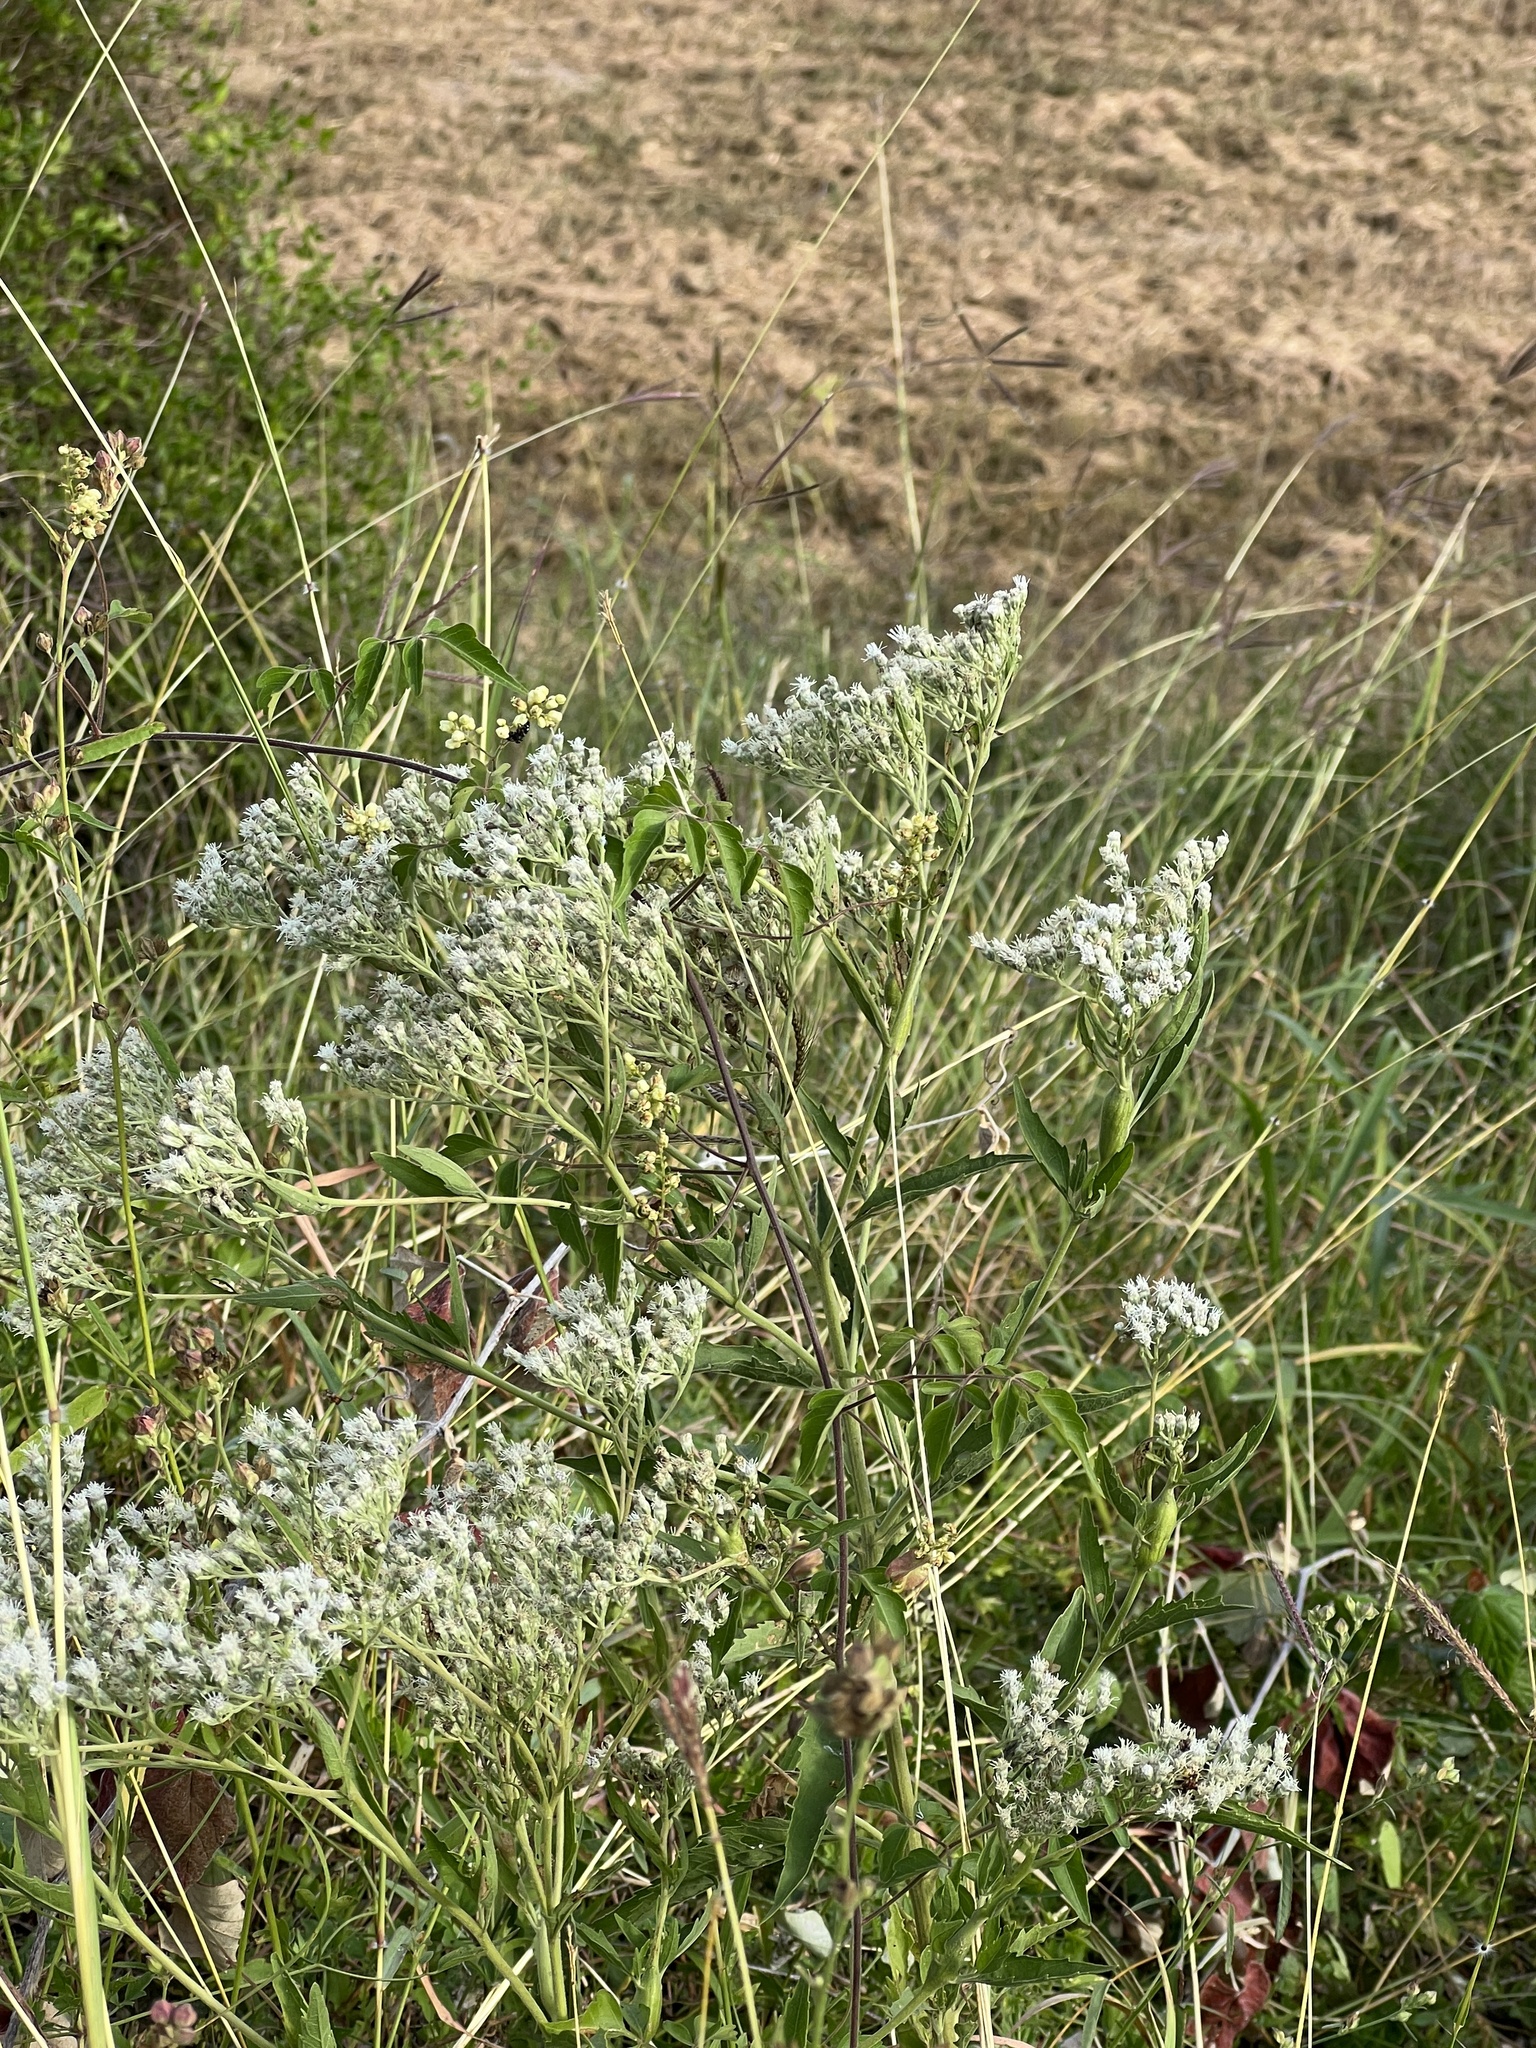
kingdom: Plantae
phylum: Tracheophyta
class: Magnoliopsida
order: Asterales
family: Asteraceae
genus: Eupatorium
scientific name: Eupatorium serotinum
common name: Late boneset
